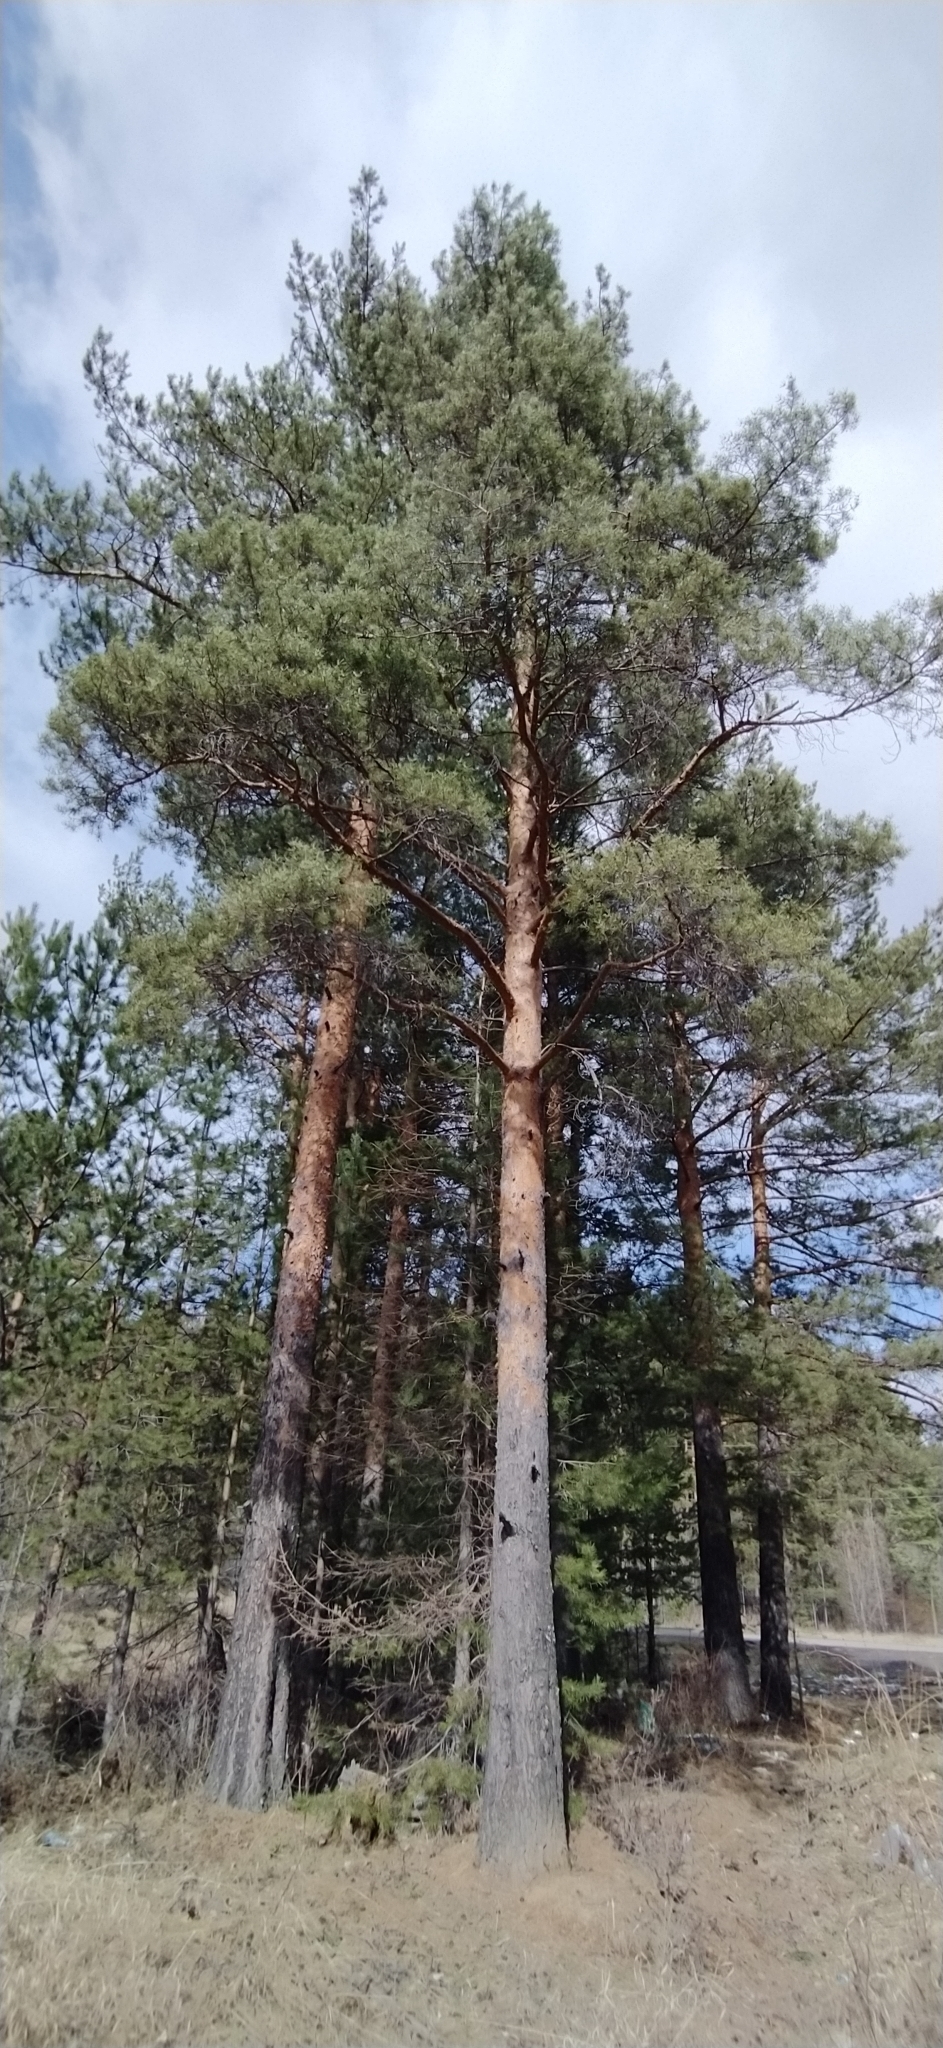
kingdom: Plantae
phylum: Tracheophyta
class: Pinopsida
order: Pinales
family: Pinaceae
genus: Pinus
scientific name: Pinus sylvestris
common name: Scots pine
